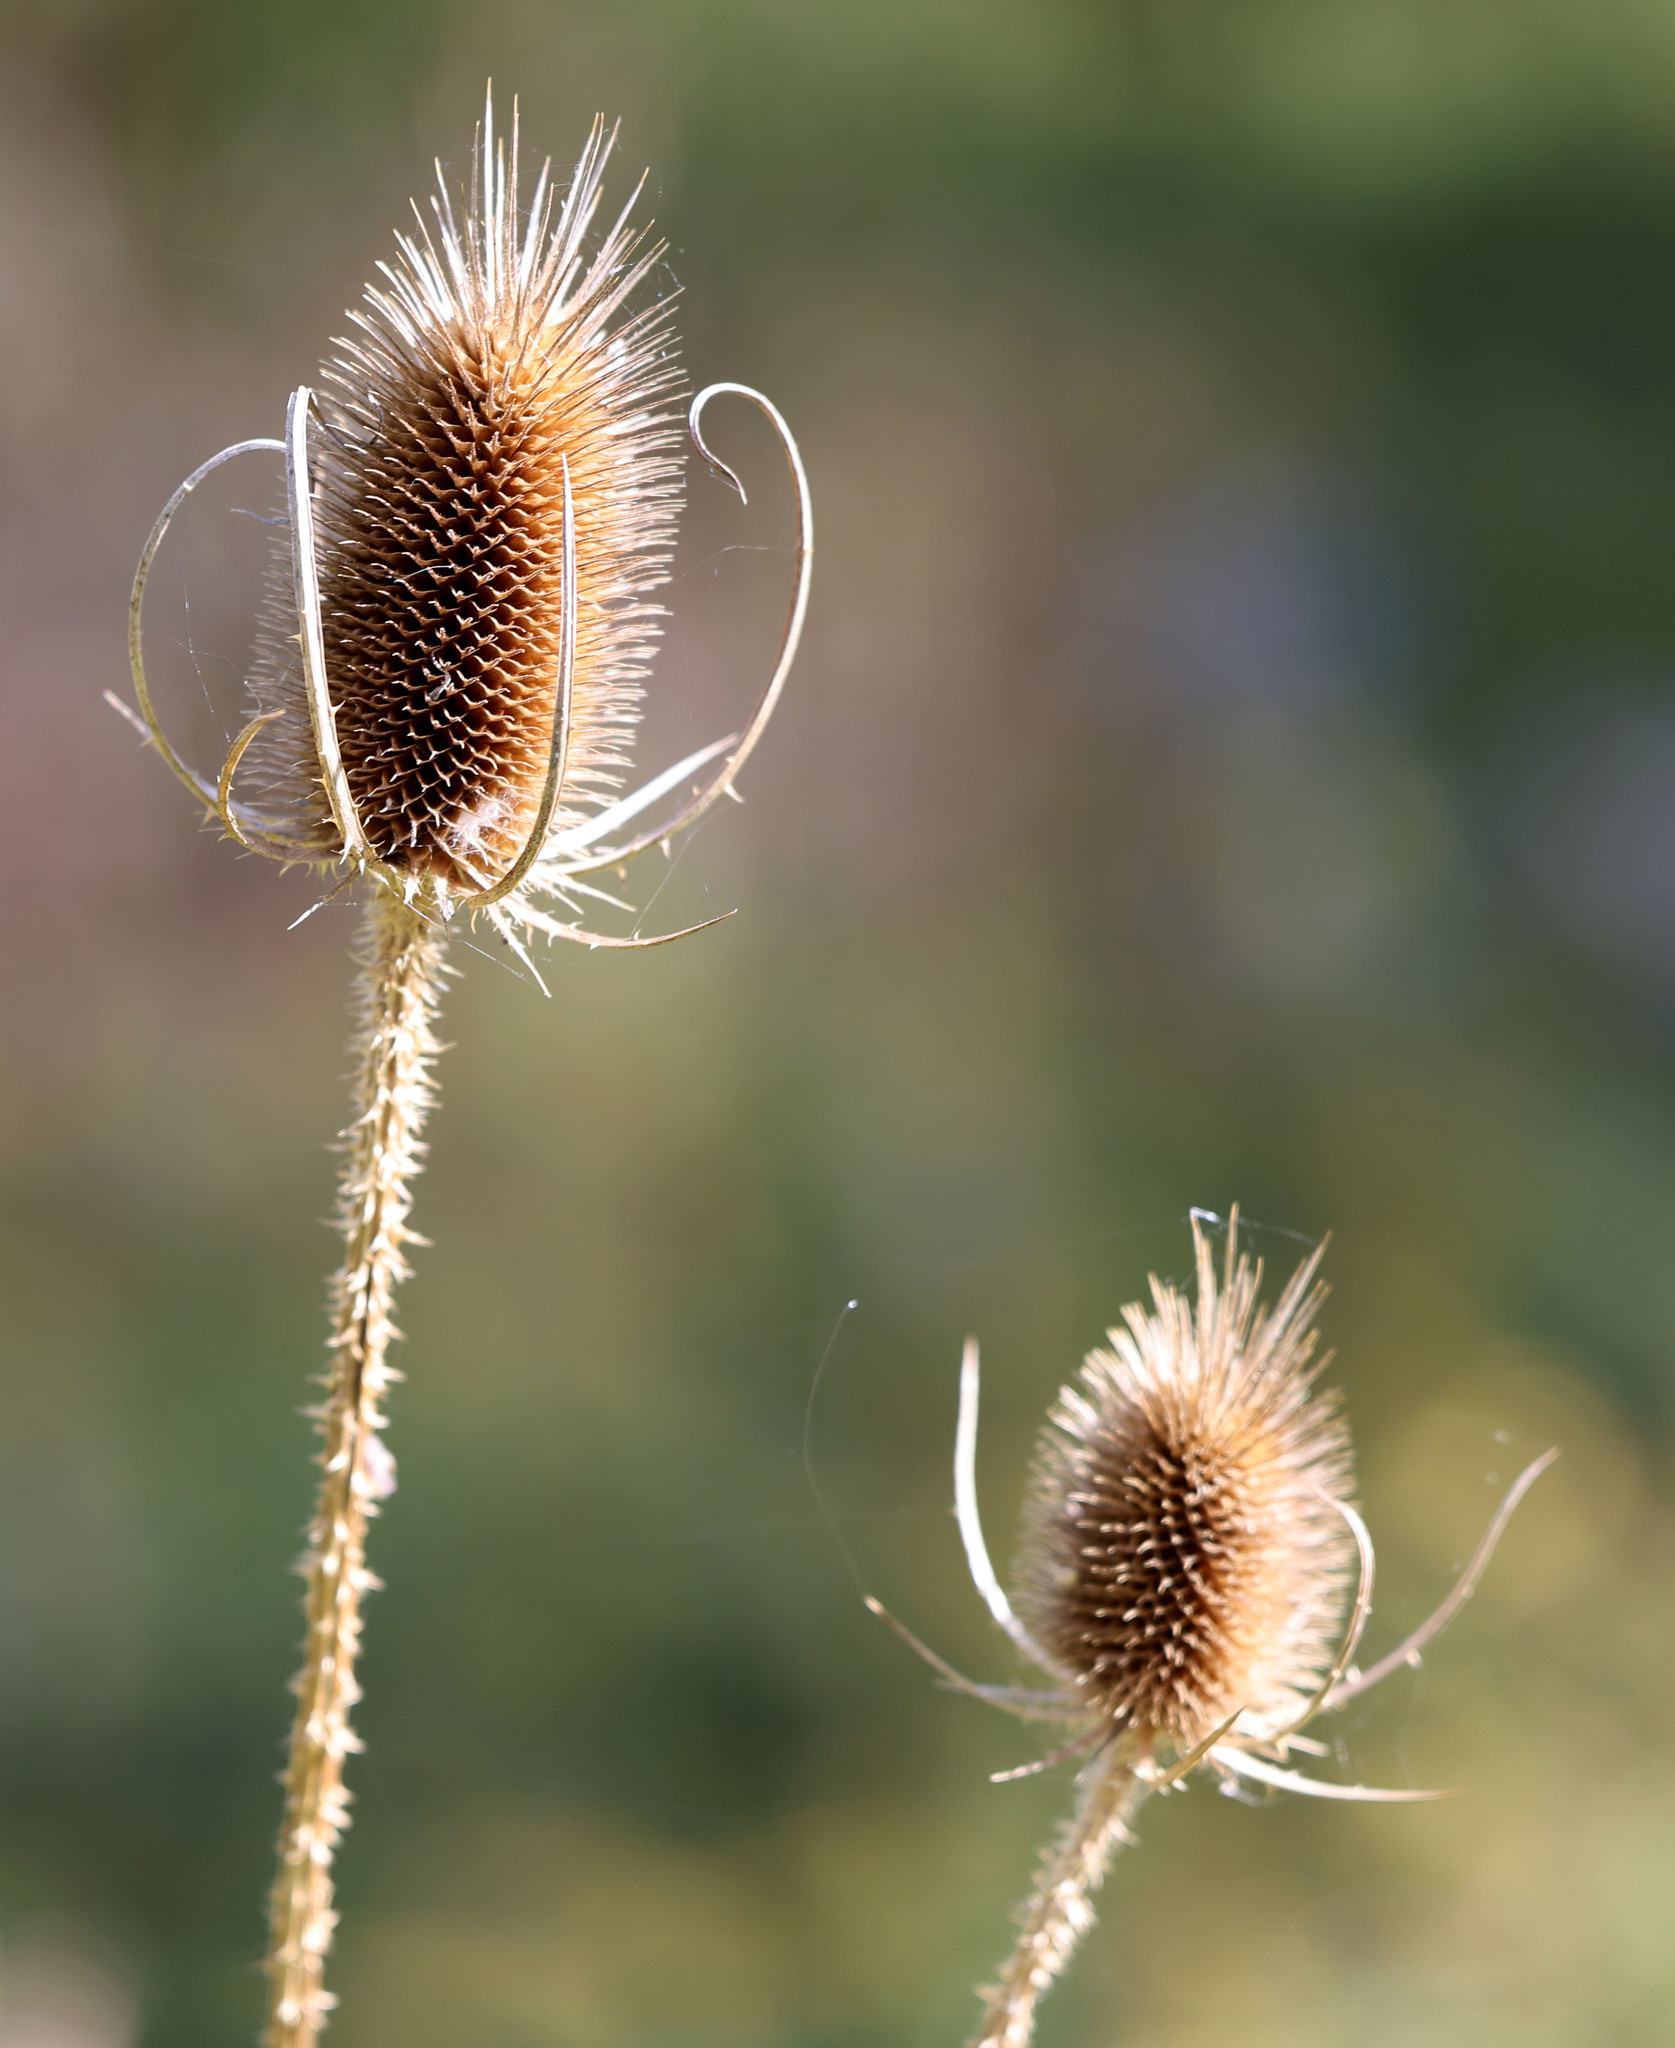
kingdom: Plantae
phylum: Tracheophyta
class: Magnoliopsida
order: Dipsacales
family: Caprifoliaceae
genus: Dipsacus
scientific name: Dipsacus fullonum
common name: Teasel
